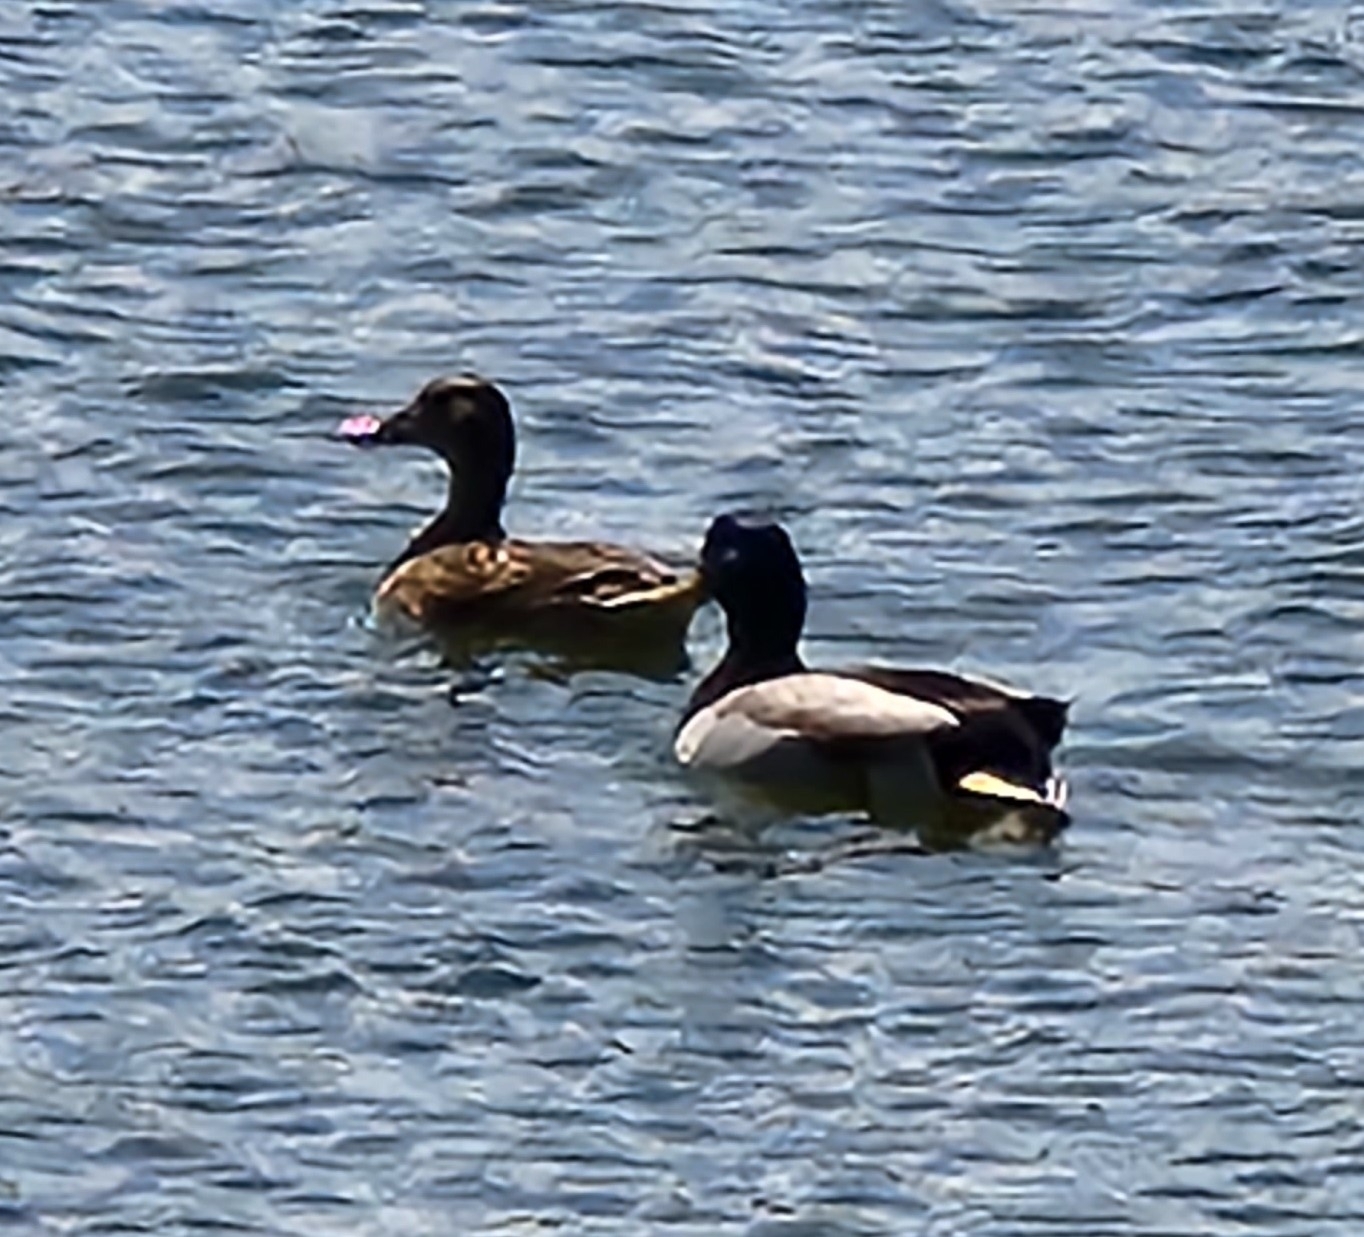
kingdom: Animalia
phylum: Chordata
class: Aves
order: Anseriformes
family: Anatidae
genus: Anas
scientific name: Anas platyrhynchos
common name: Mallard
